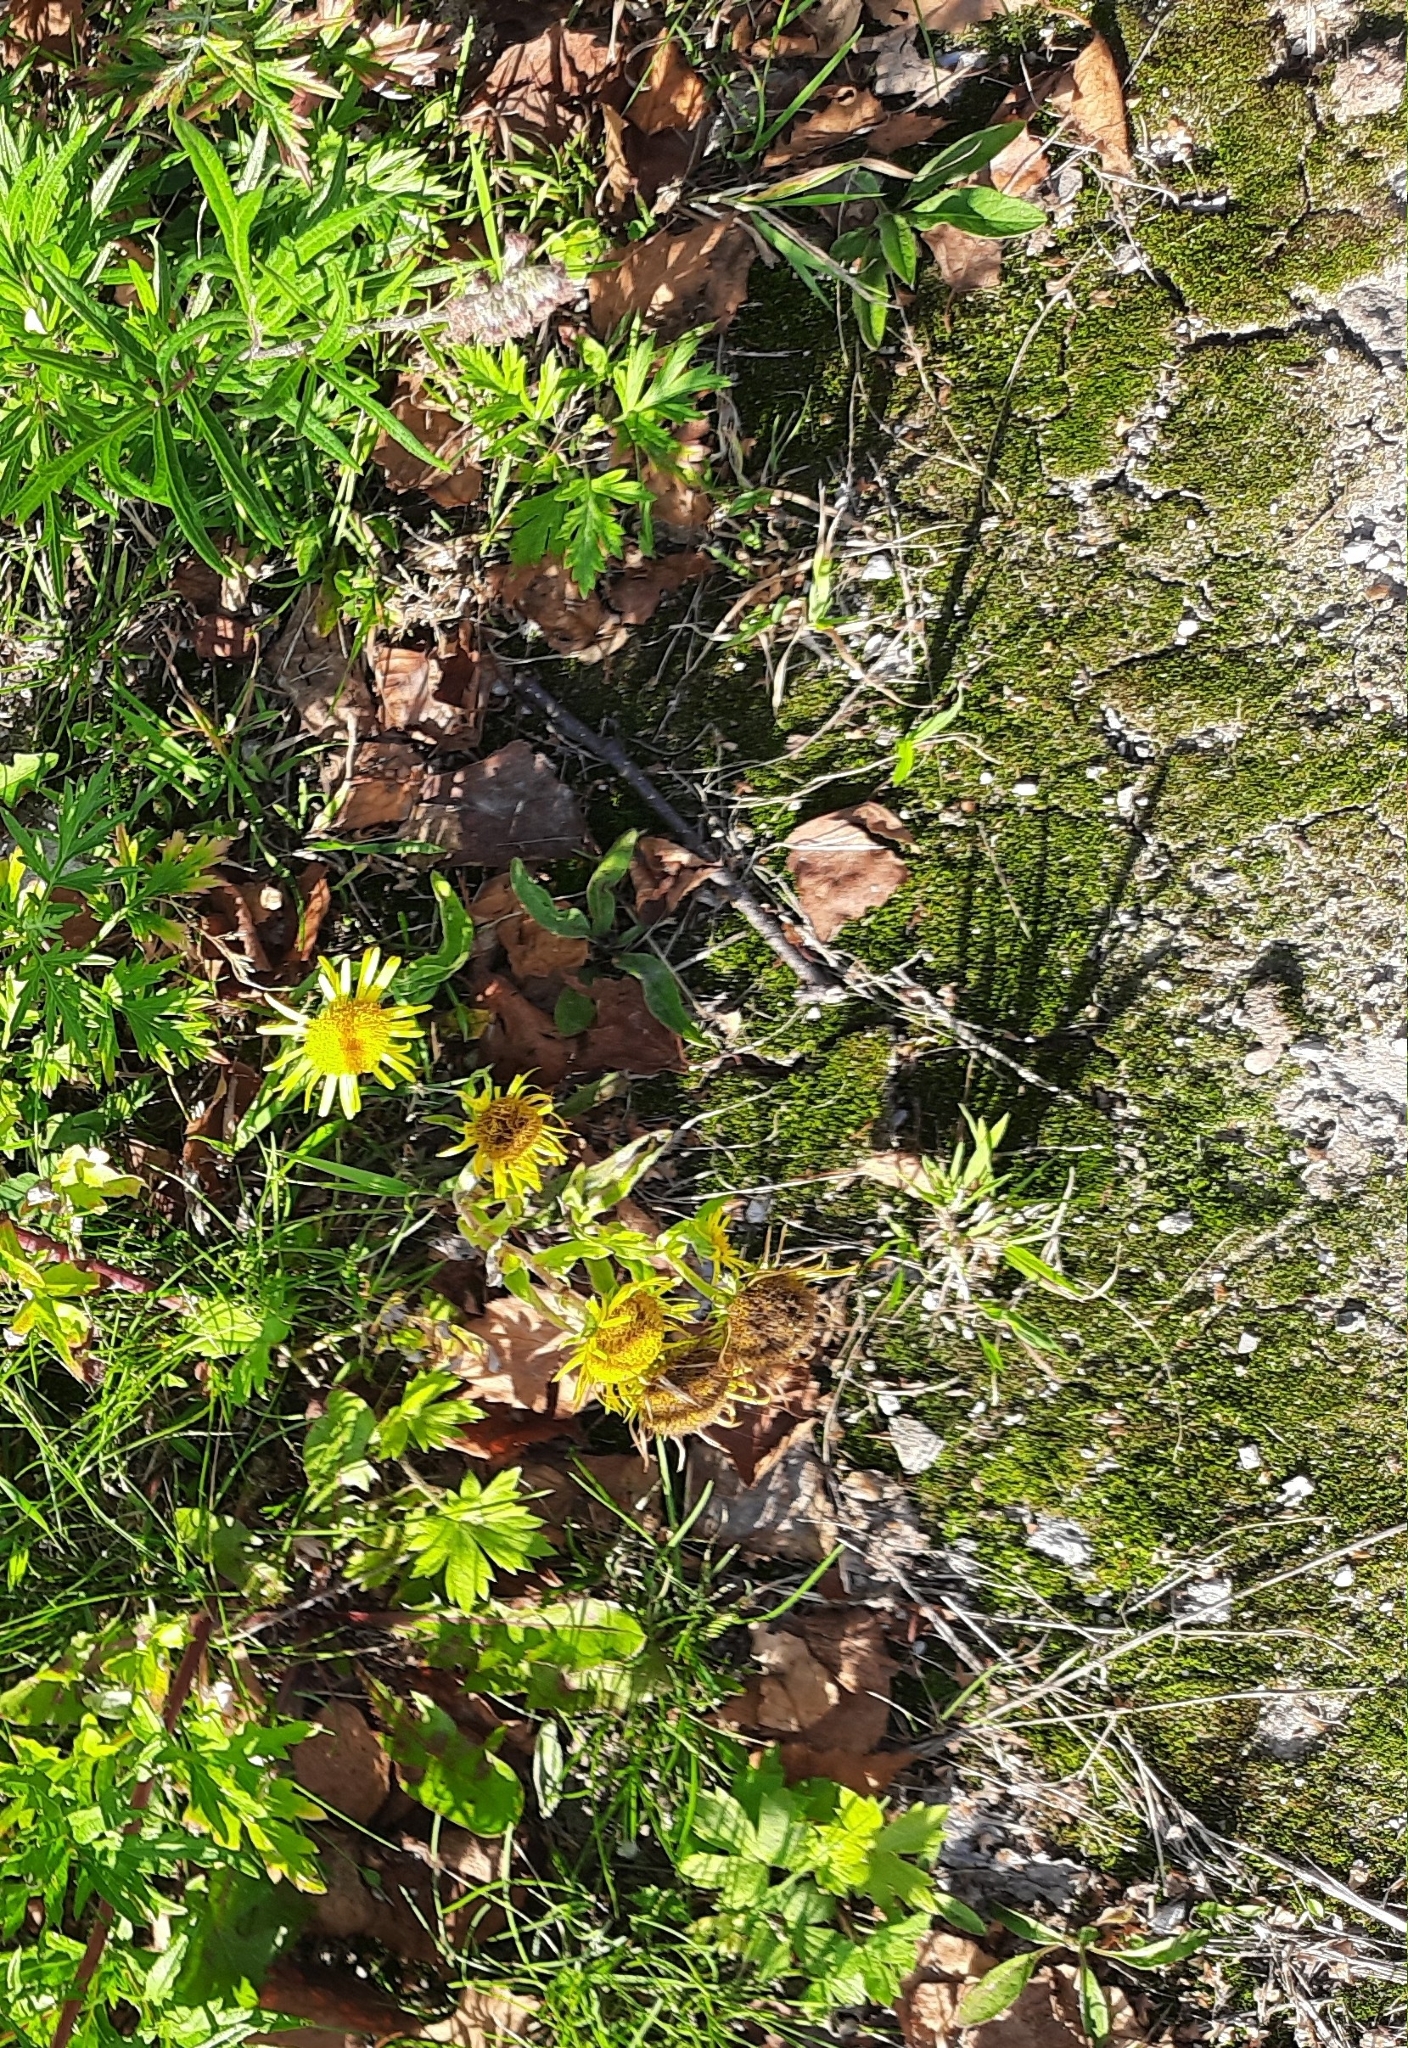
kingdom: Plantae
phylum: Tracheophyta
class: Magnoliopsida
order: Asterales
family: Asteraceae
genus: Pentanema
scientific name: Pentanema britannicum
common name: British elecampane
